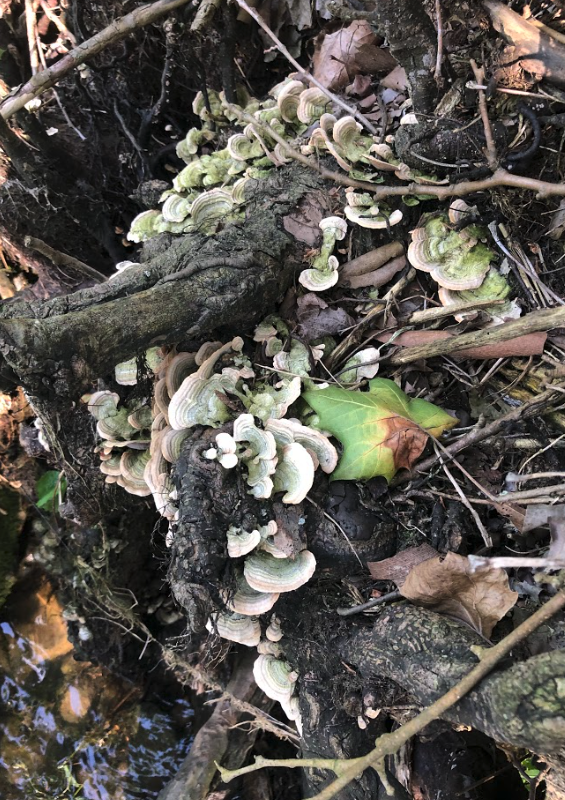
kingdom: Fungi
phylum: Basidiomycota
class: Agaricomycetes
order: Russulales
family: Stereaceae
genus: Stereum
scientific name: Stereum subtomentosum
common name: Yellowing curtain crust
